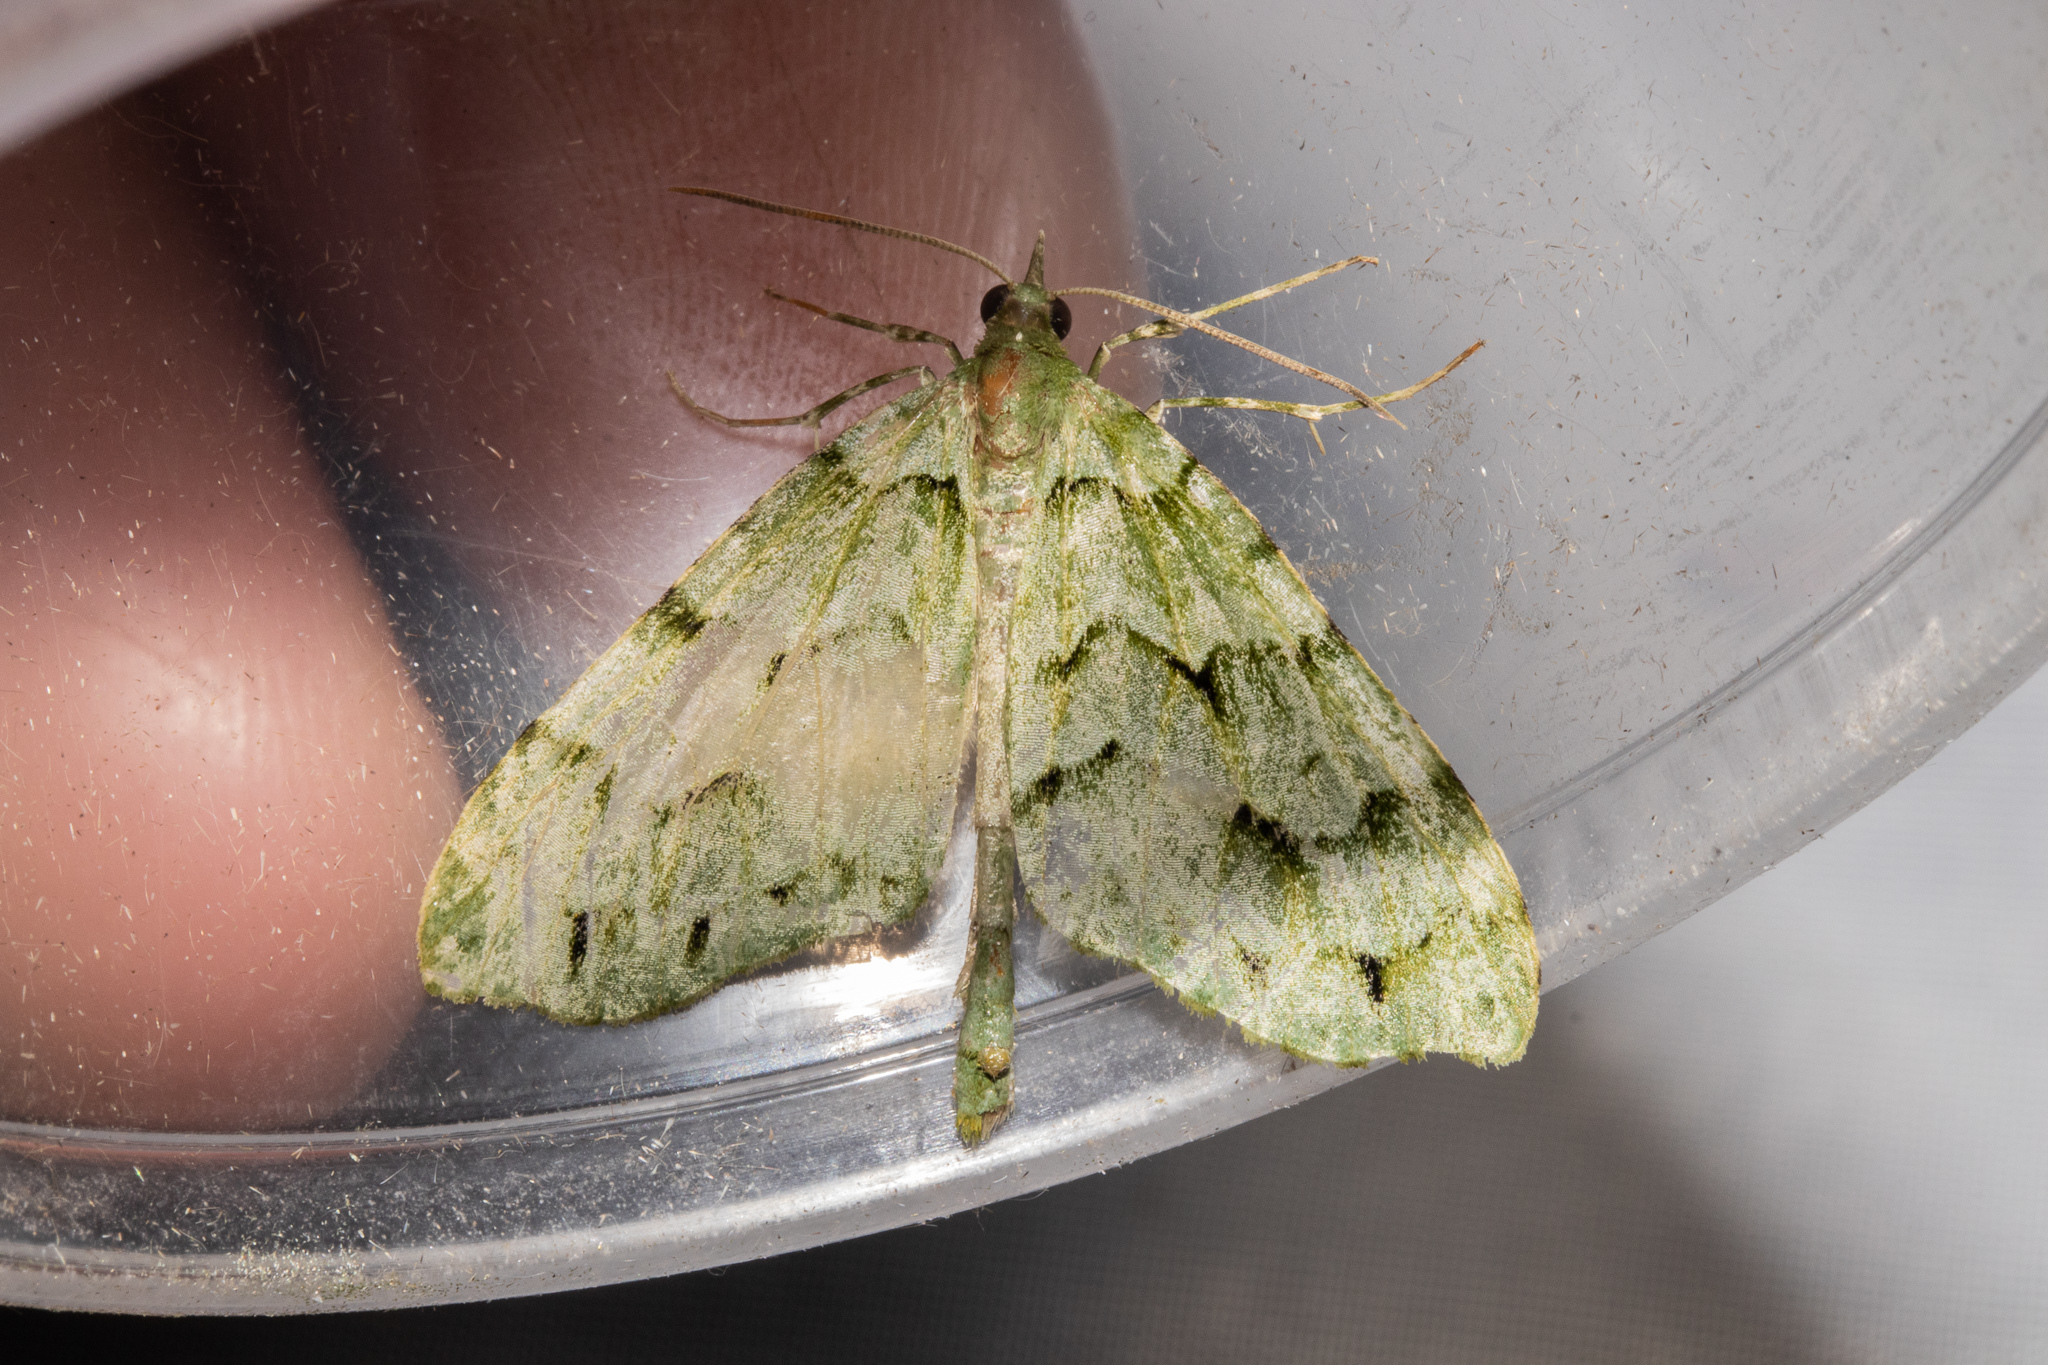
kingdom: Animalia
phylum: Arthropoda
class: Insecta
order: Lepidoptera
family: Geometridae
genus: Tatosoma
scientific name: Tatosoma lestevata
